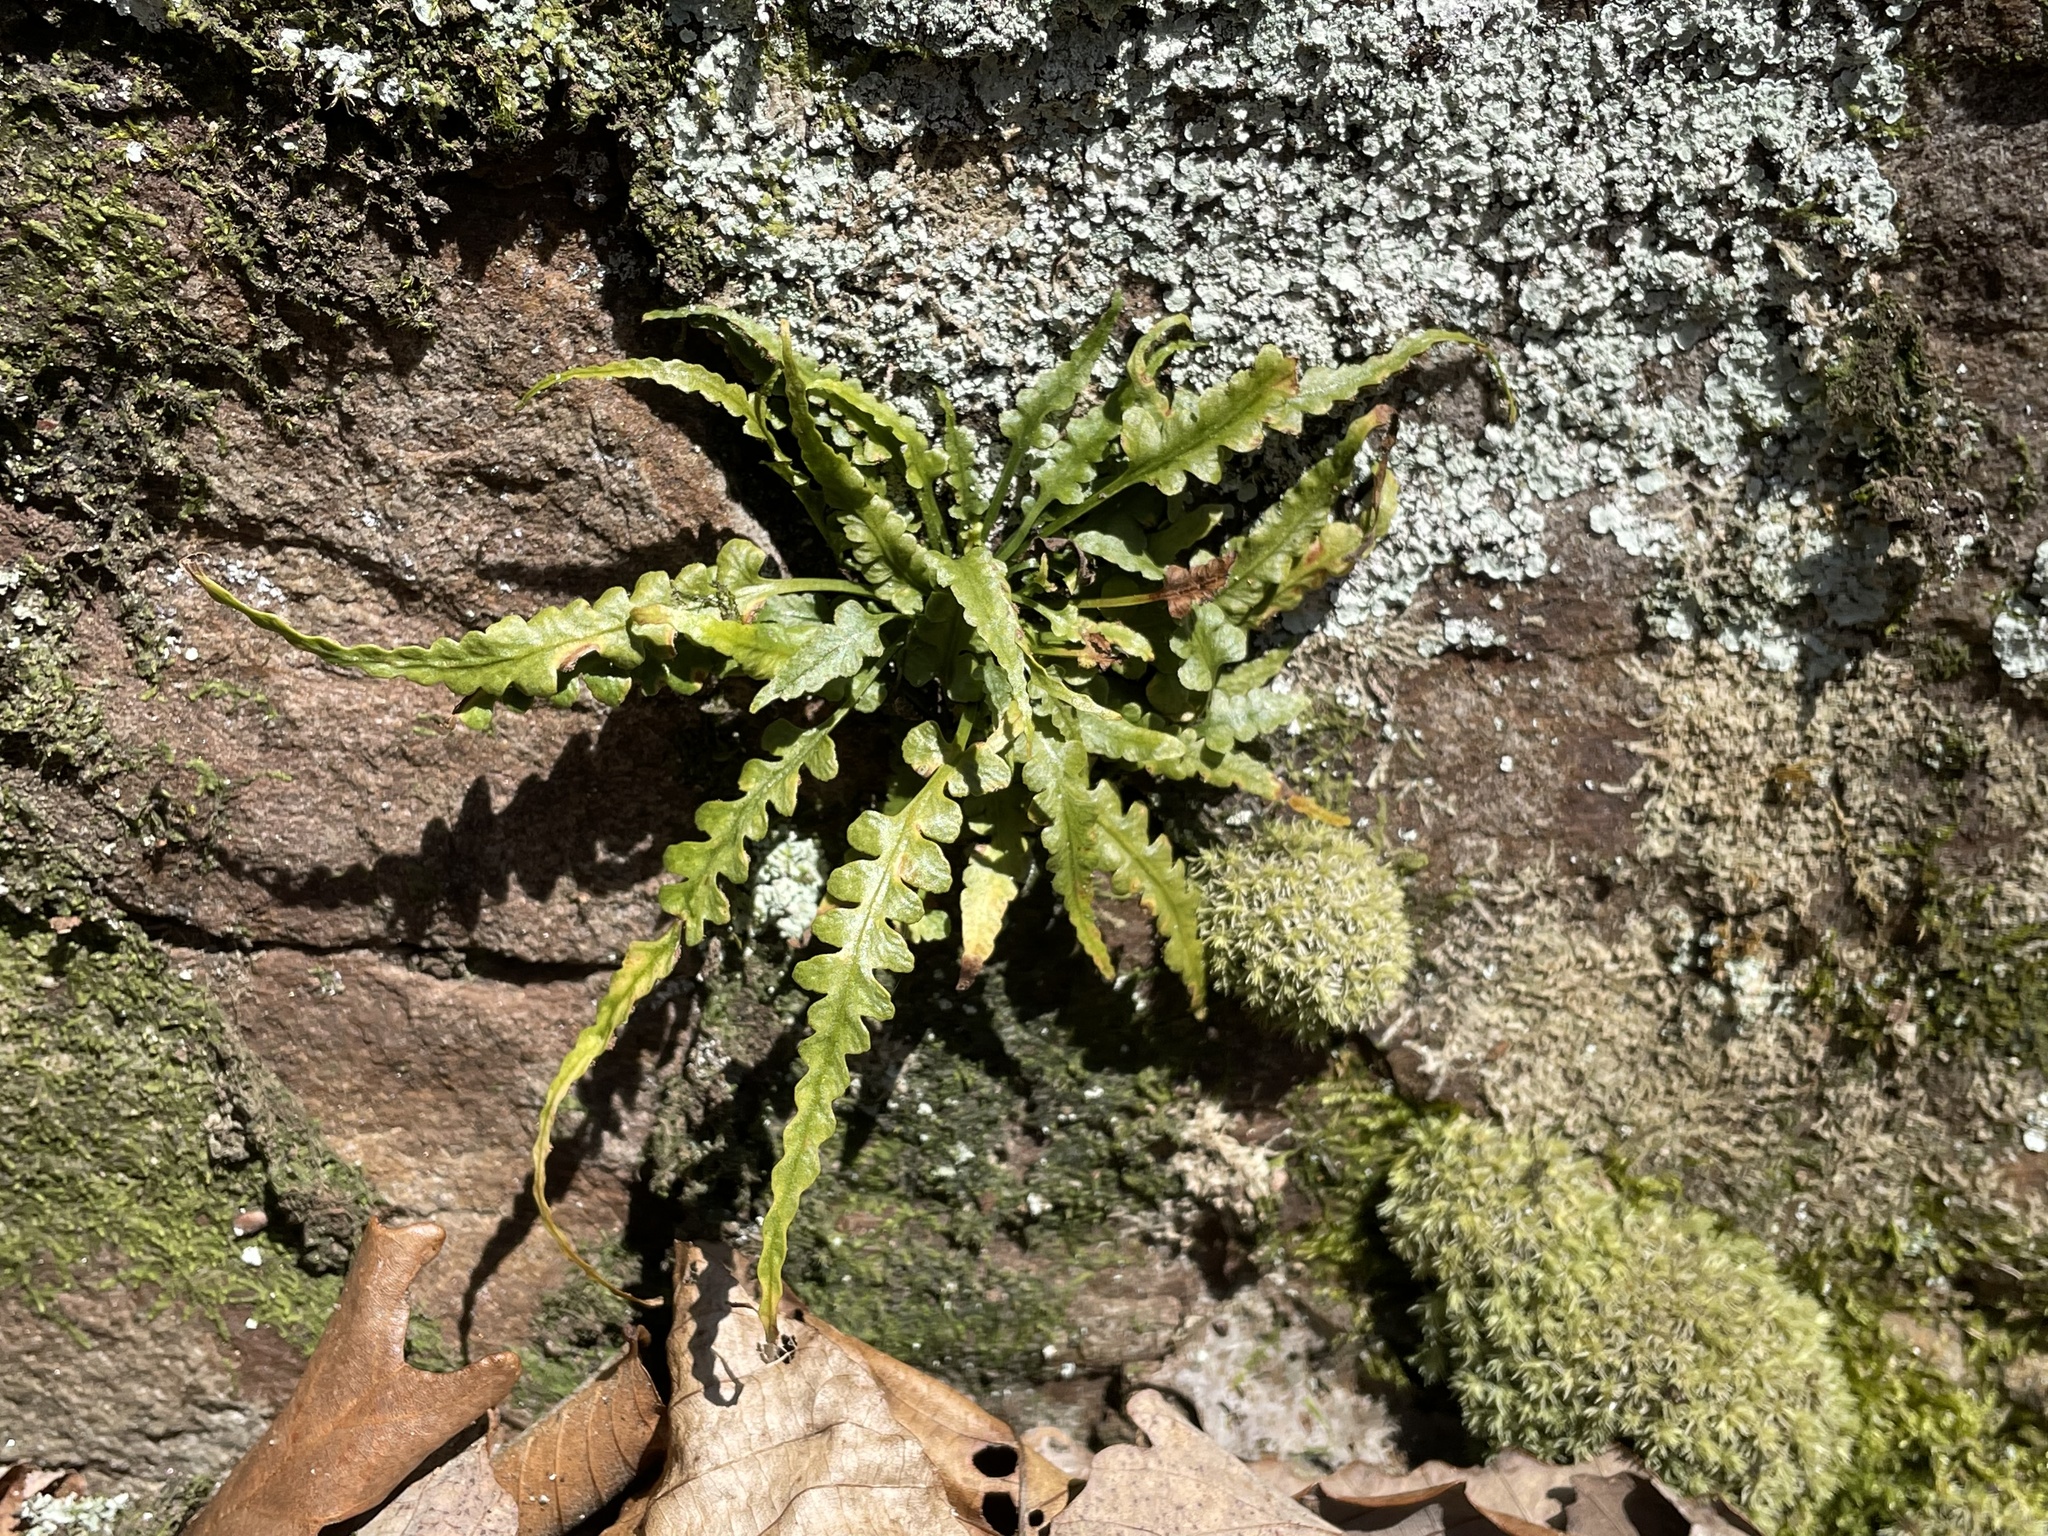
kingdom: Plantae
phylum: Tracheophyta
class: Polypodiopsida
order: Polypodiales
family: Aspleniaceae
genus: Asplenium
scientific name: Asplenium pinnatifidum
